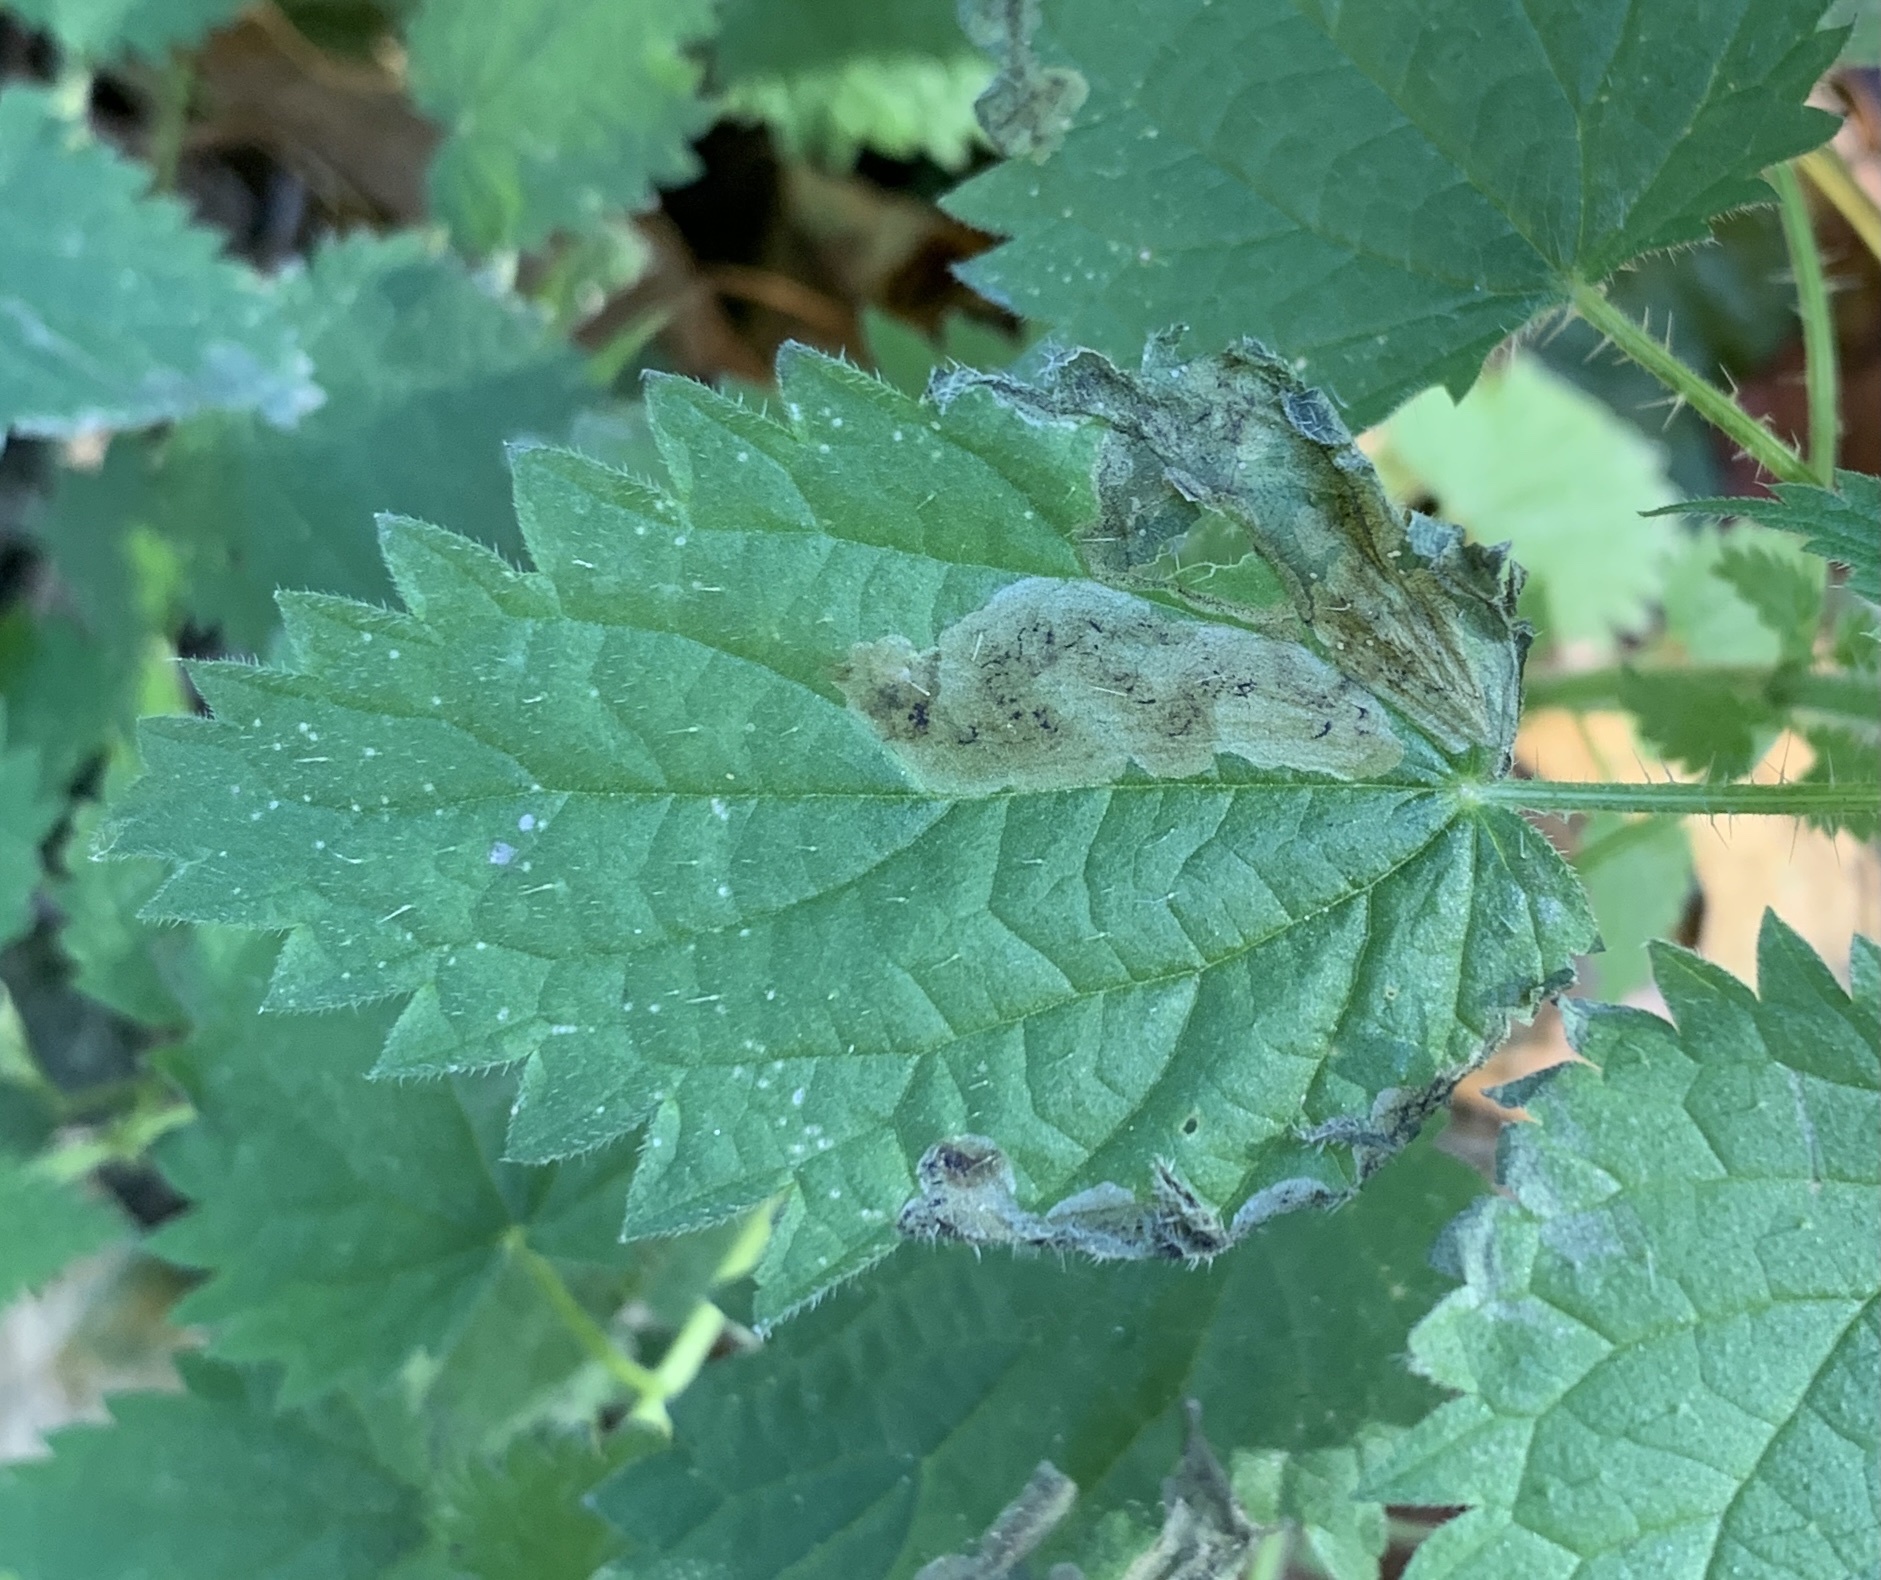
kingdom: Animalia
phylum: Arthropoda
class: Insecta
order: Diptera
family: Agromyzidae
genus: Agromyza
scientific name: Agromyza pseudoreptans
